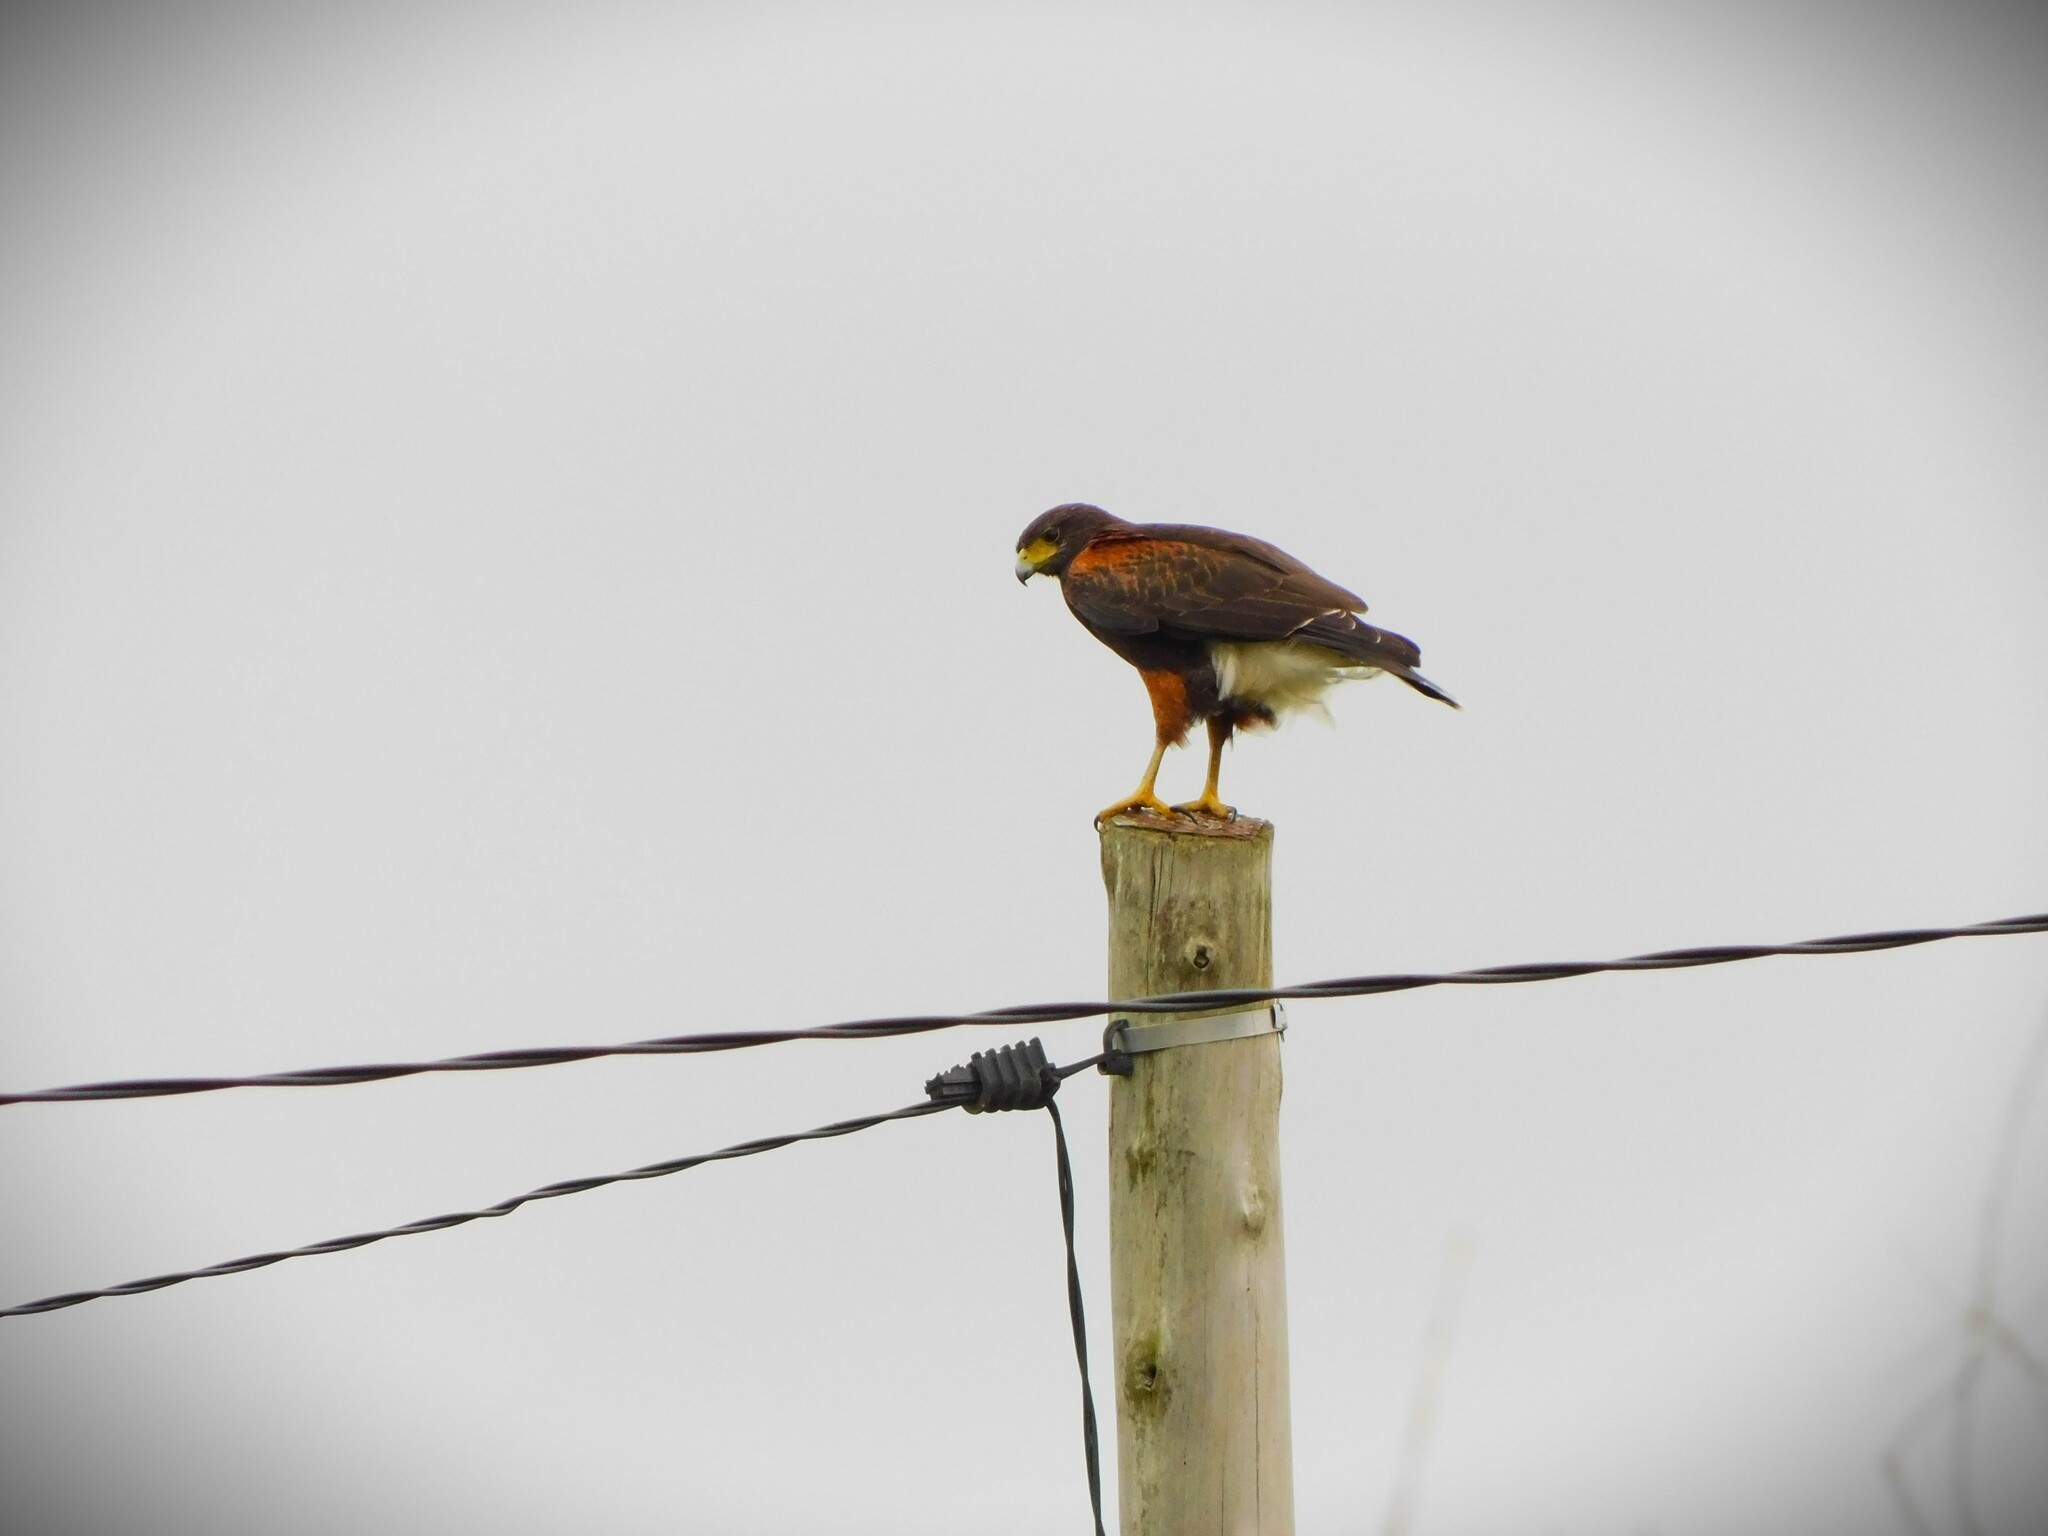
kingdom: Animalia
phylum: Chordata
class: Aves
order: Accipitriformes
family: Accipitridae
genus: Parabuteo
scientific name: Parabuteo unicinctus
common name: Harris's hawk
